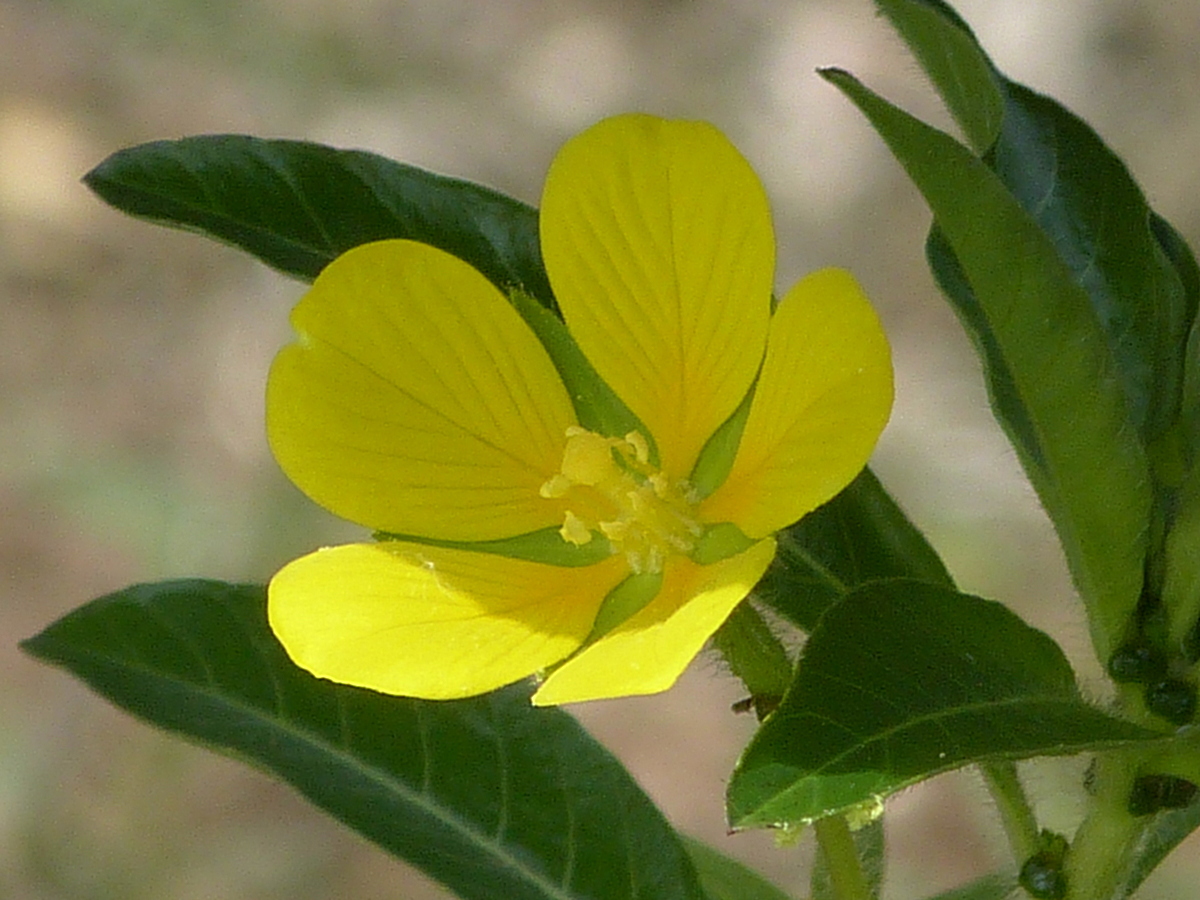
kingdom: Plantae
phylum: Tracheophyta
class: Magnoliopsida
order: Myrtales
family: Onagraceae
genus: Ludwigia
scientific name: Ludwigia peploides
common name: Floating primrose-willow
